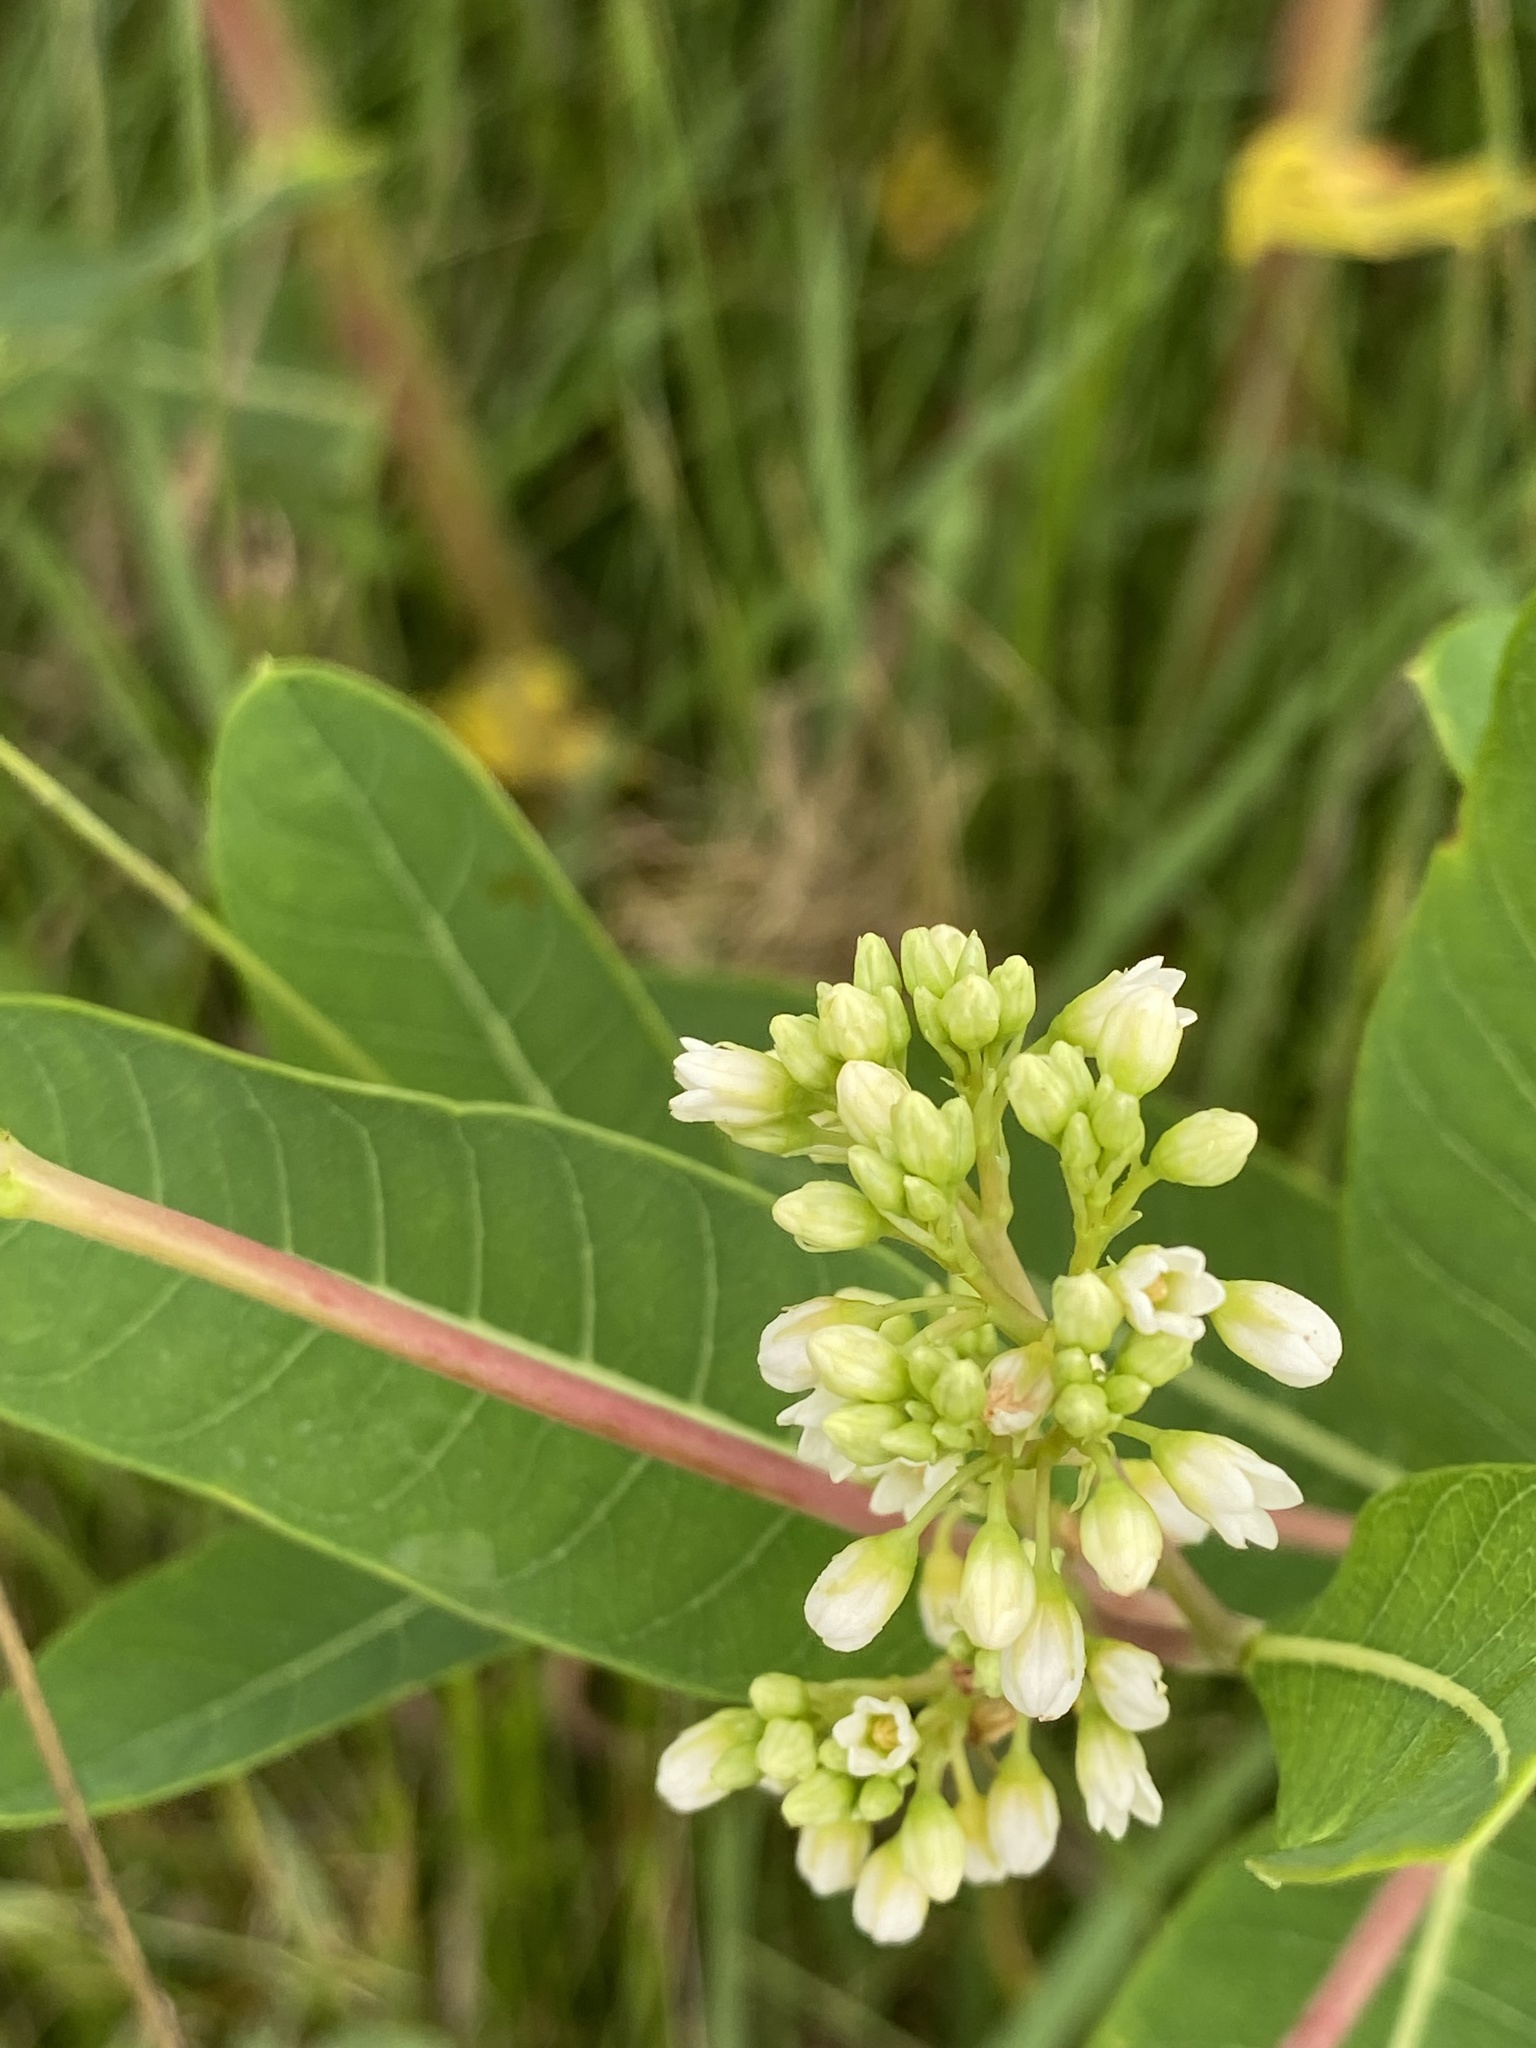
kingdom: Plantae
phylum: Tracheophyta
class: Magnoliopsida
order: Gentianales
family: Apocynaceae
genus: Apocynum
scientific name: Apocynum cannabinum
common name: Hemp dogbane
